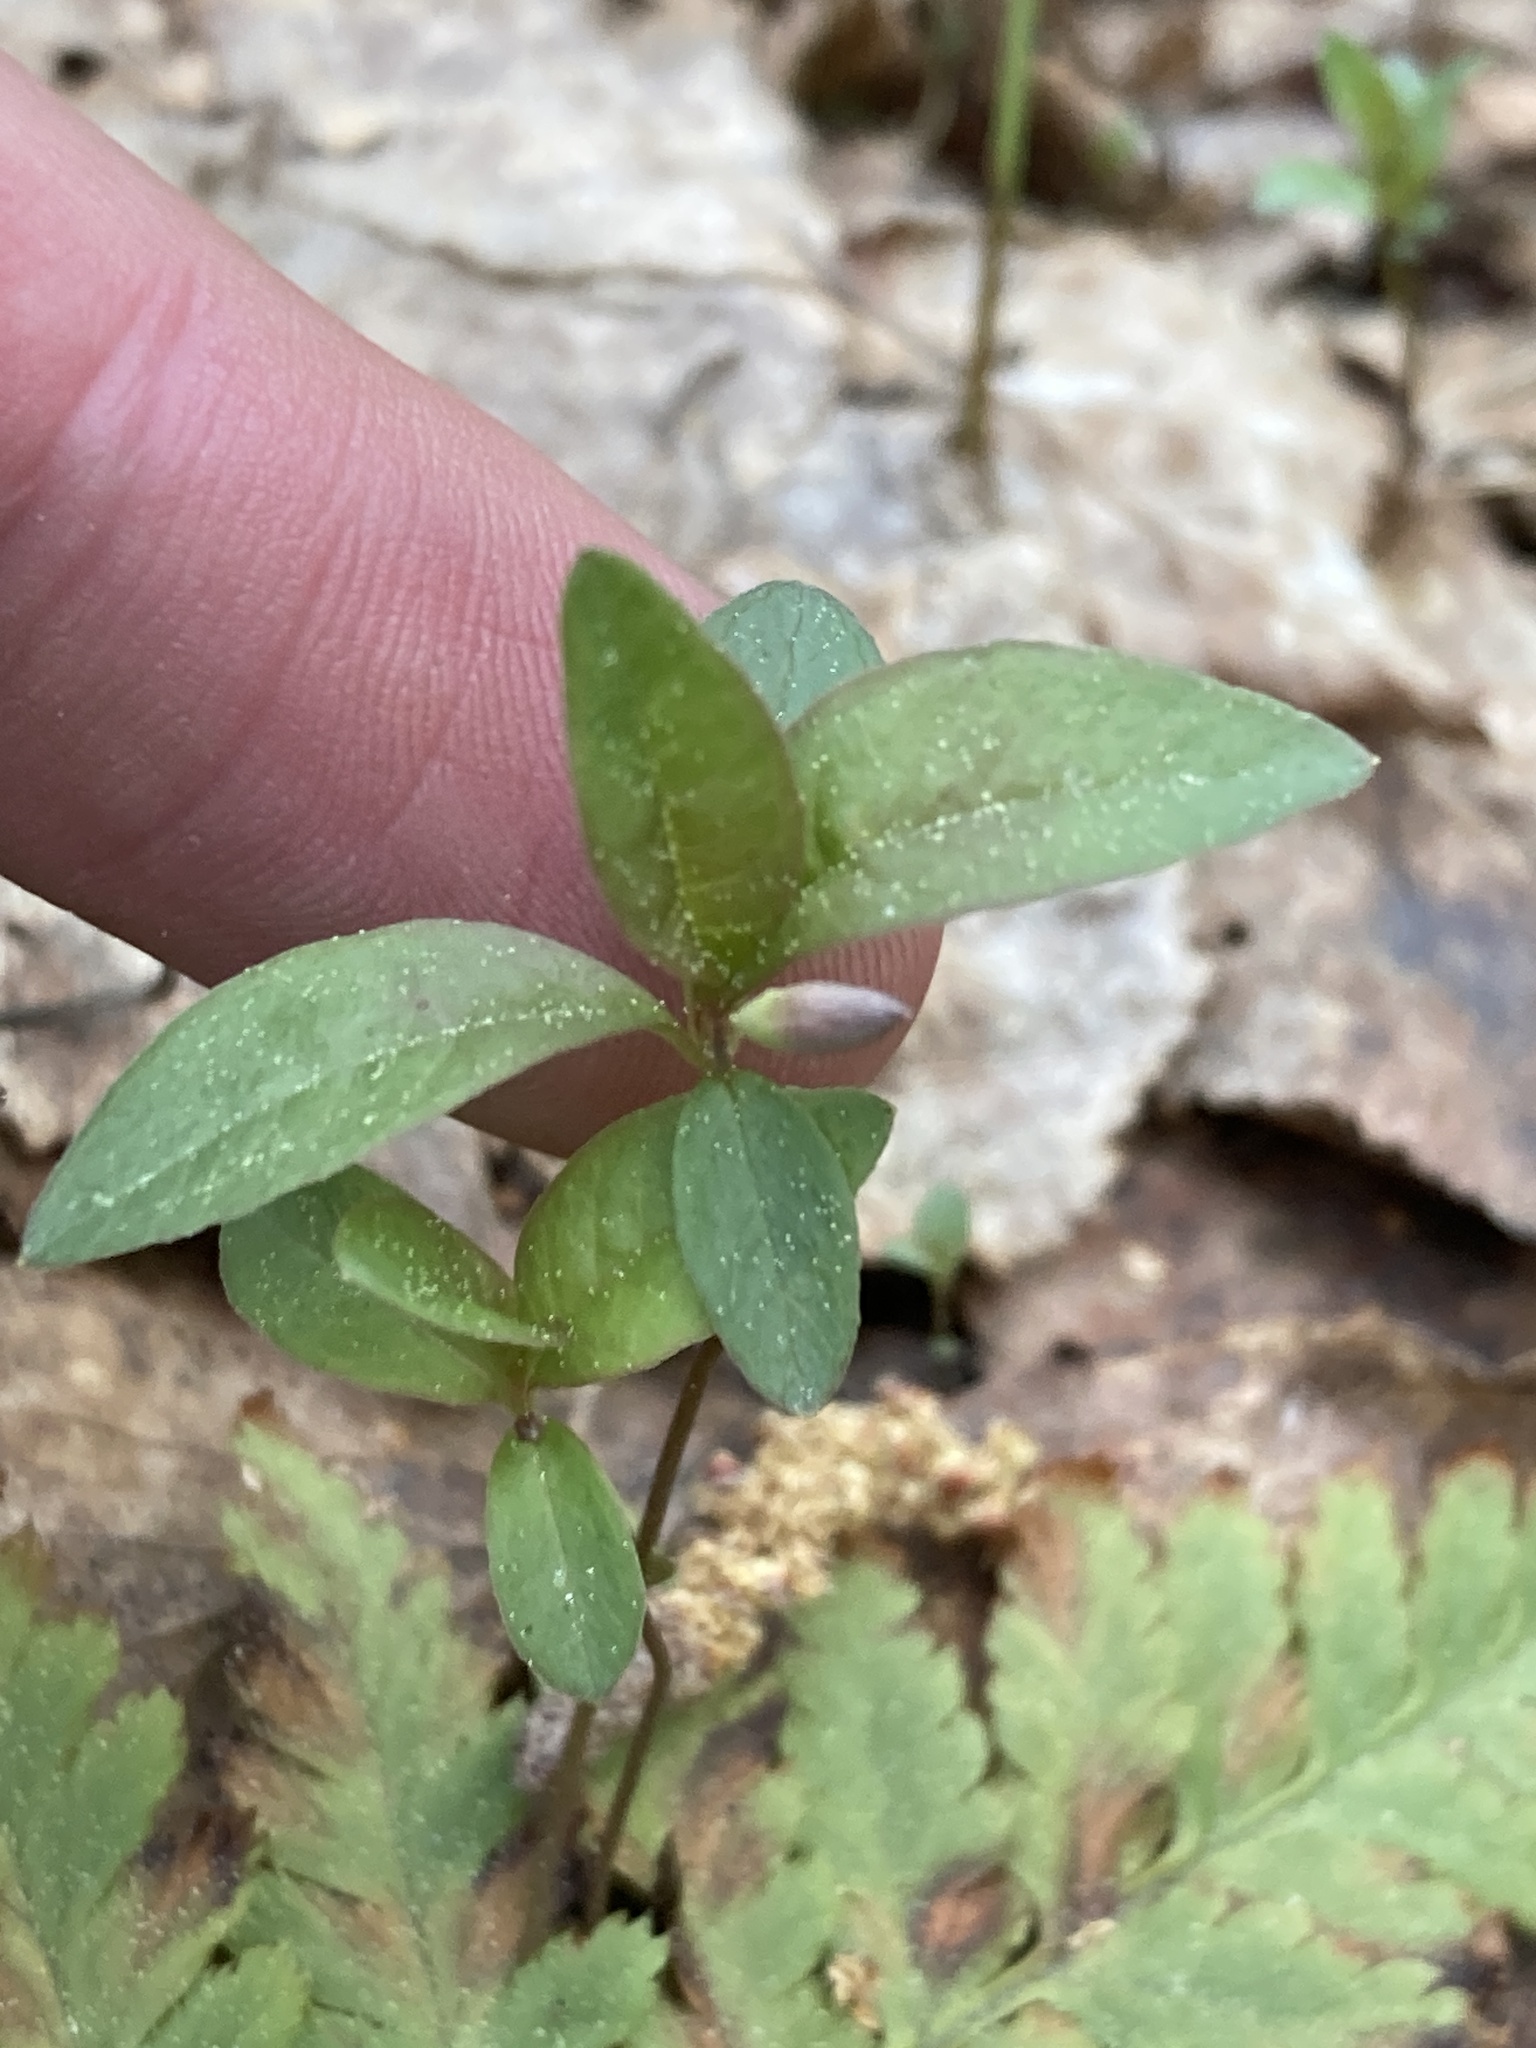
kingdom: Plantae
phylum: Tracheophyta
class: Magnoliopsida
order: Ericales
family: Primulaceae
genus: Lysimachia
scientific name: Lysimachia europaea
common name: Arctic starflower
